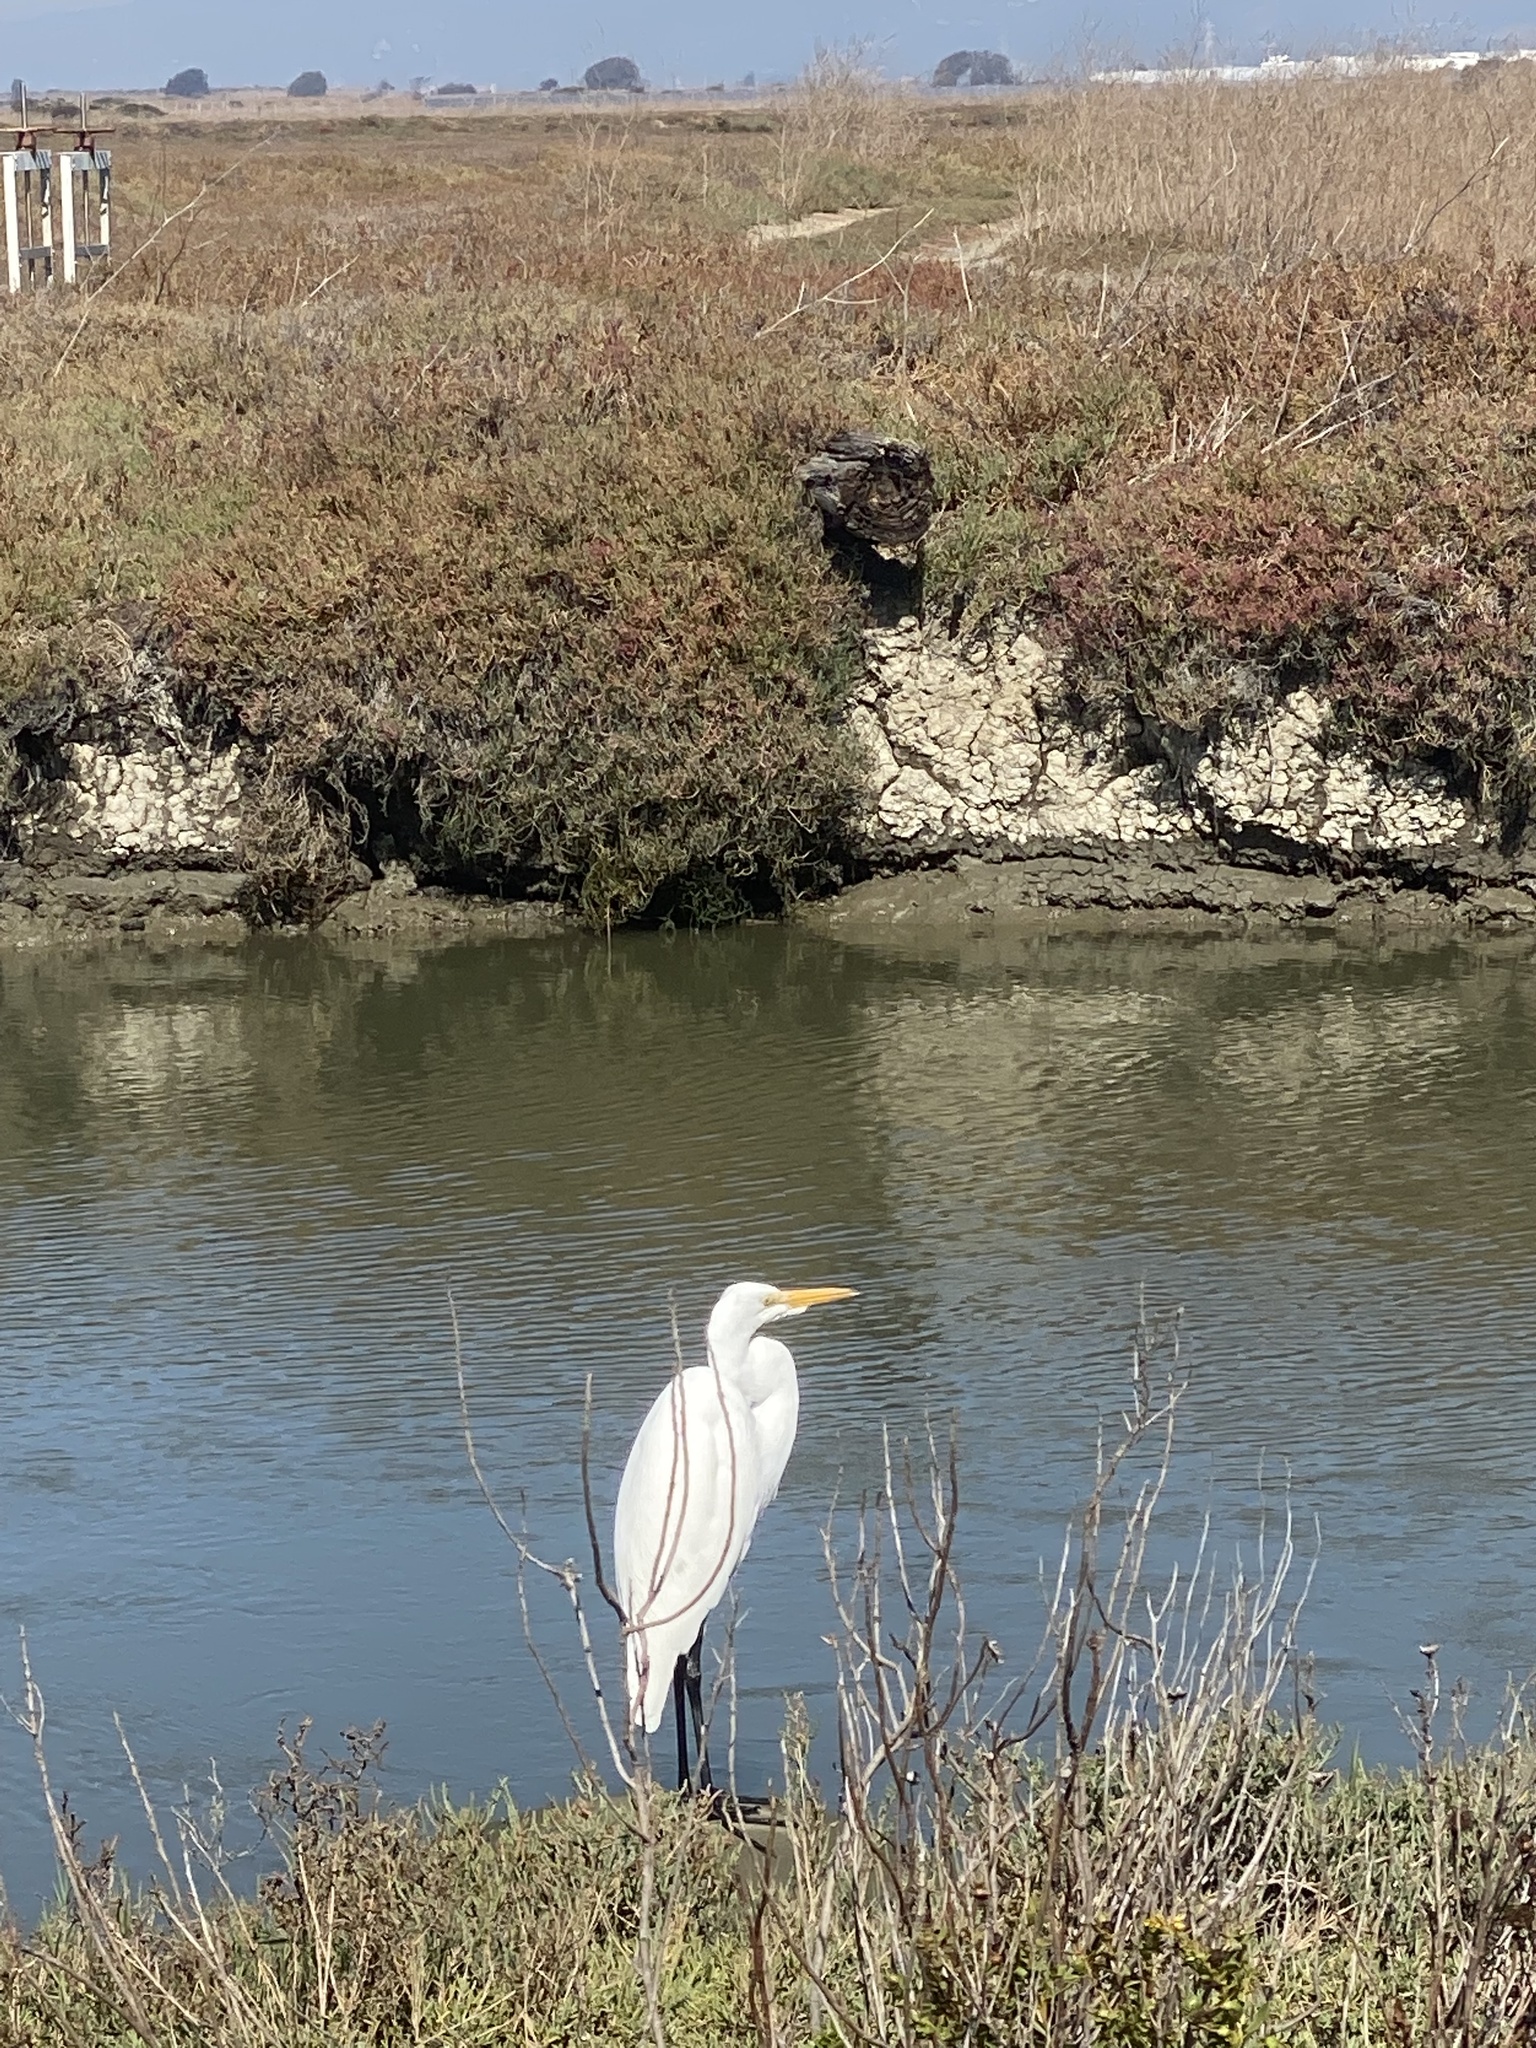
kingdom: Animalia
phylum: Chordata
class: Aves
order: Pelecaniformes
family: Ardeidae
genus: Ardea
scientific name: Ardea alba
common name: Great egret
